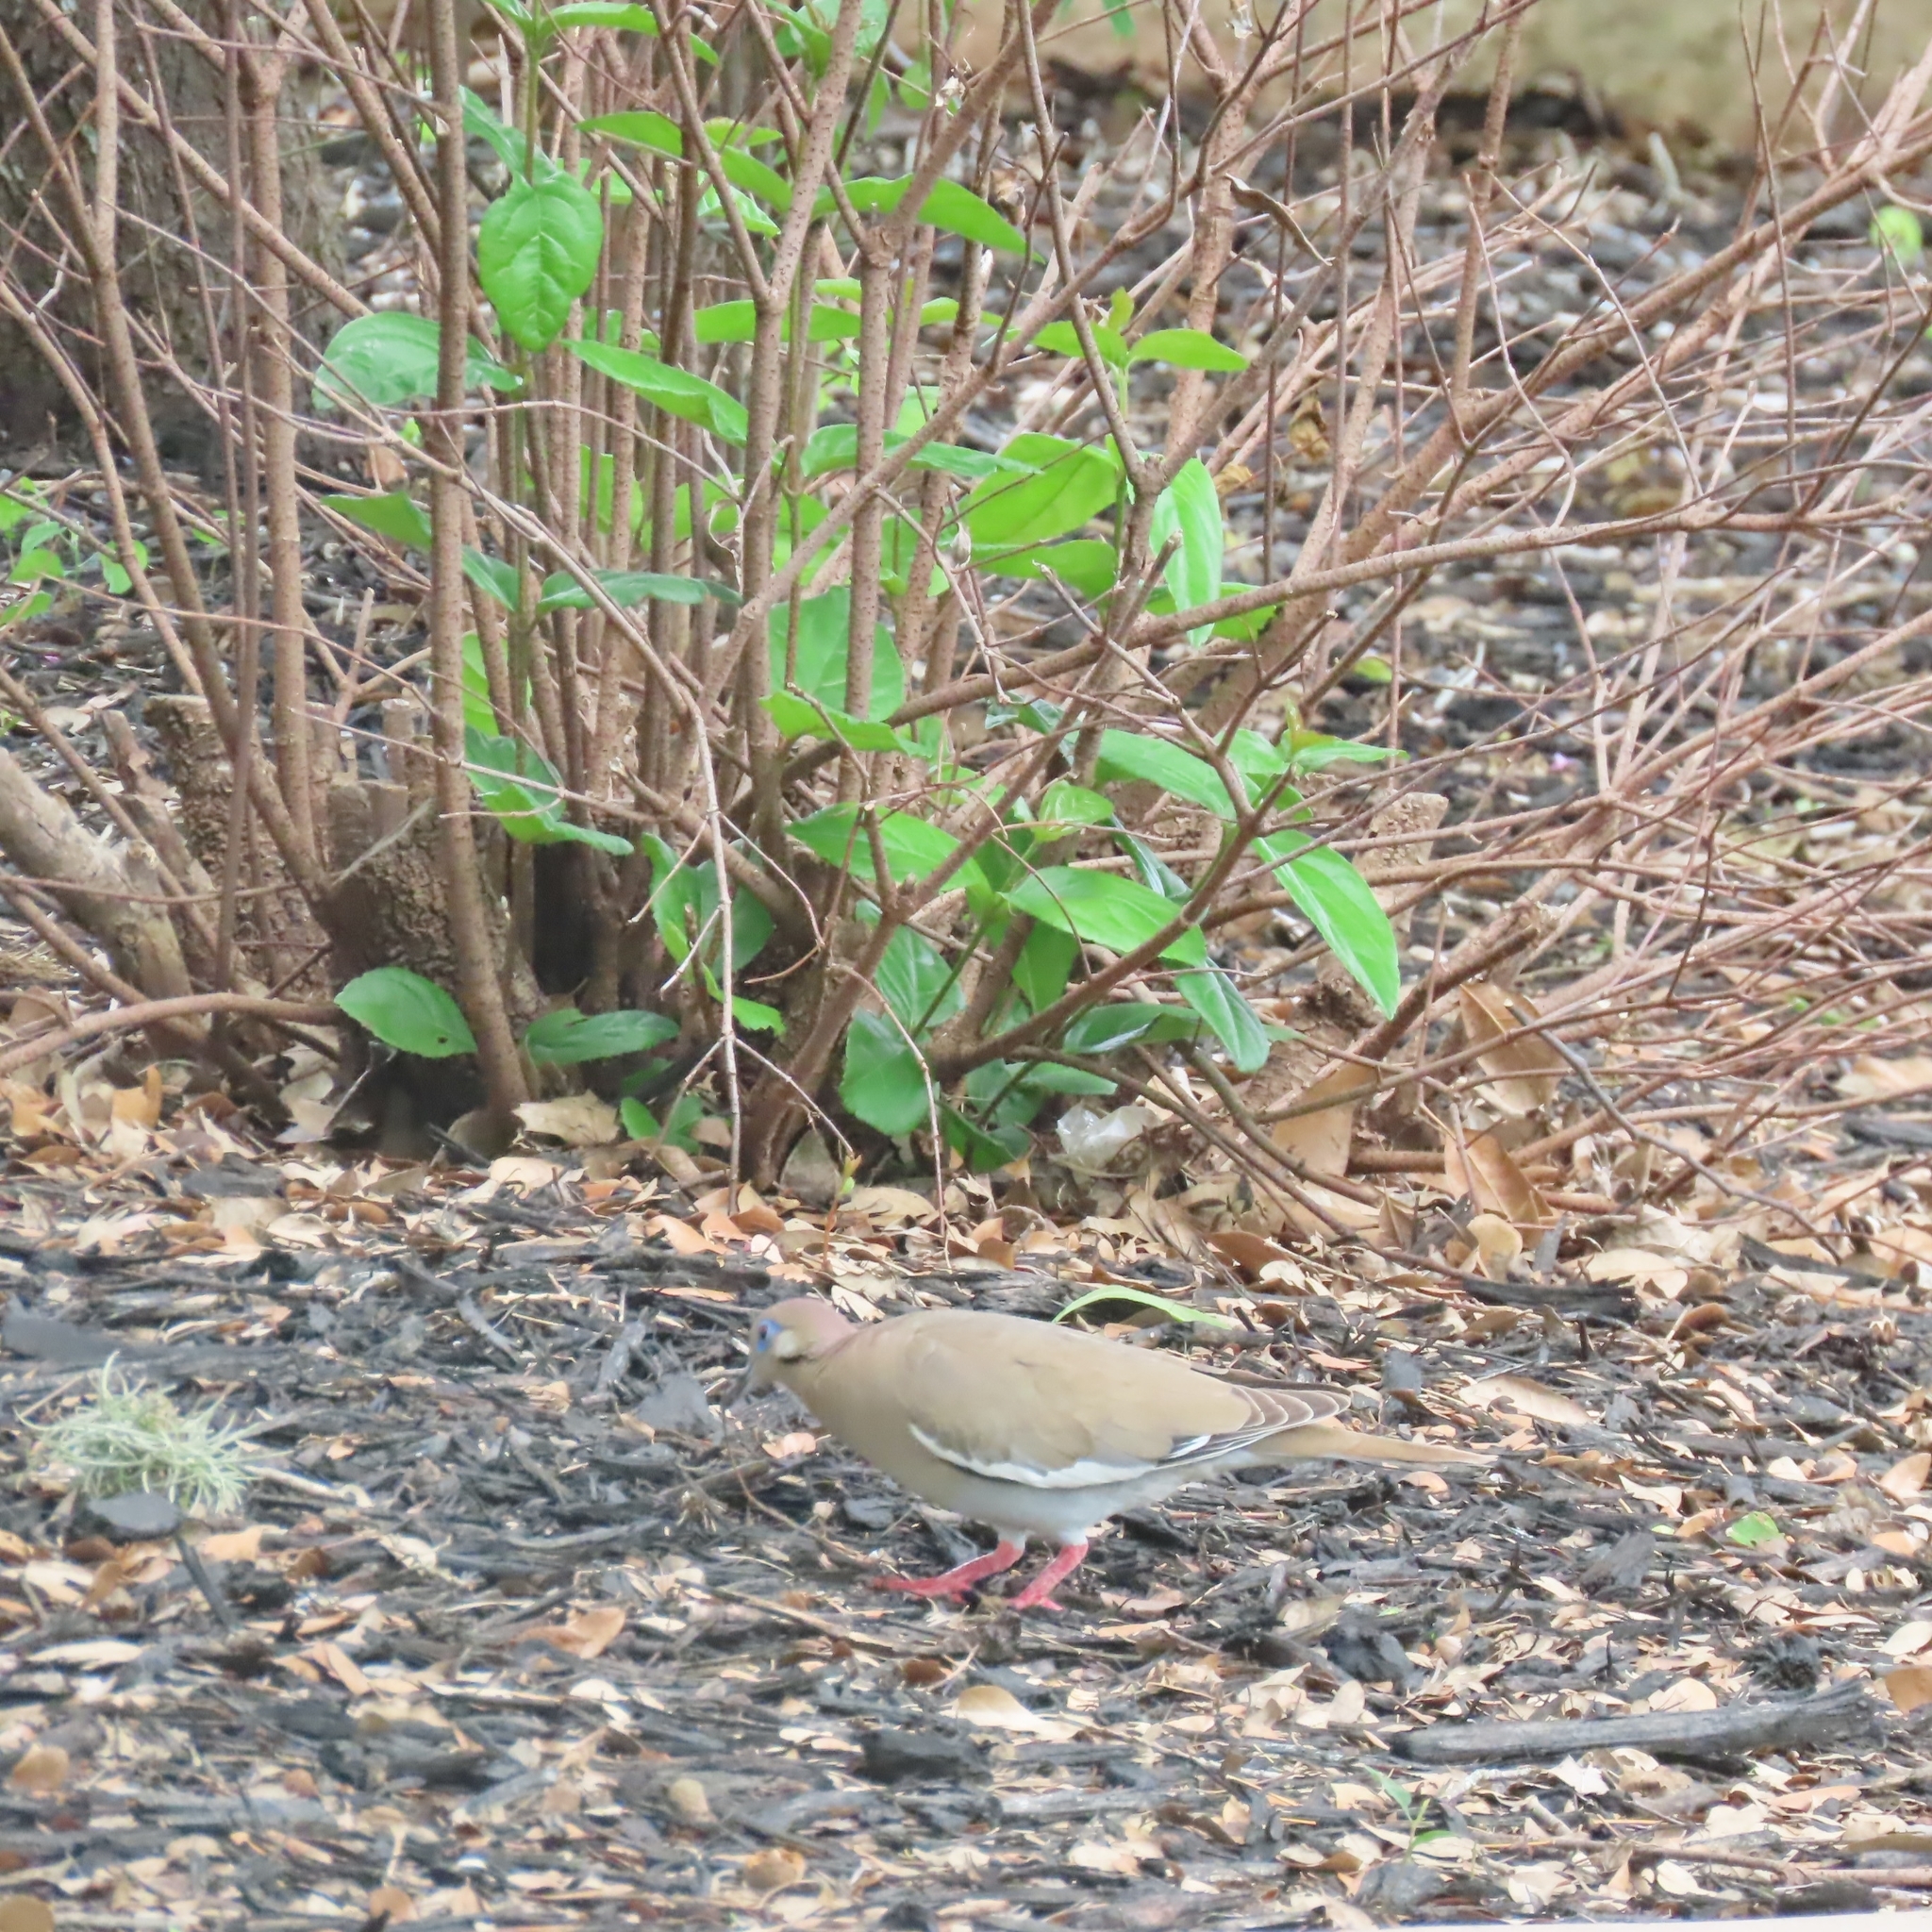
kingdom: Animalia
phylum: Chordata
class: Aves
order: Columbiformes
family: Columbidae
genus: Zenaida
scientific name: Zenaida asiatica
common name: White-winged dove
